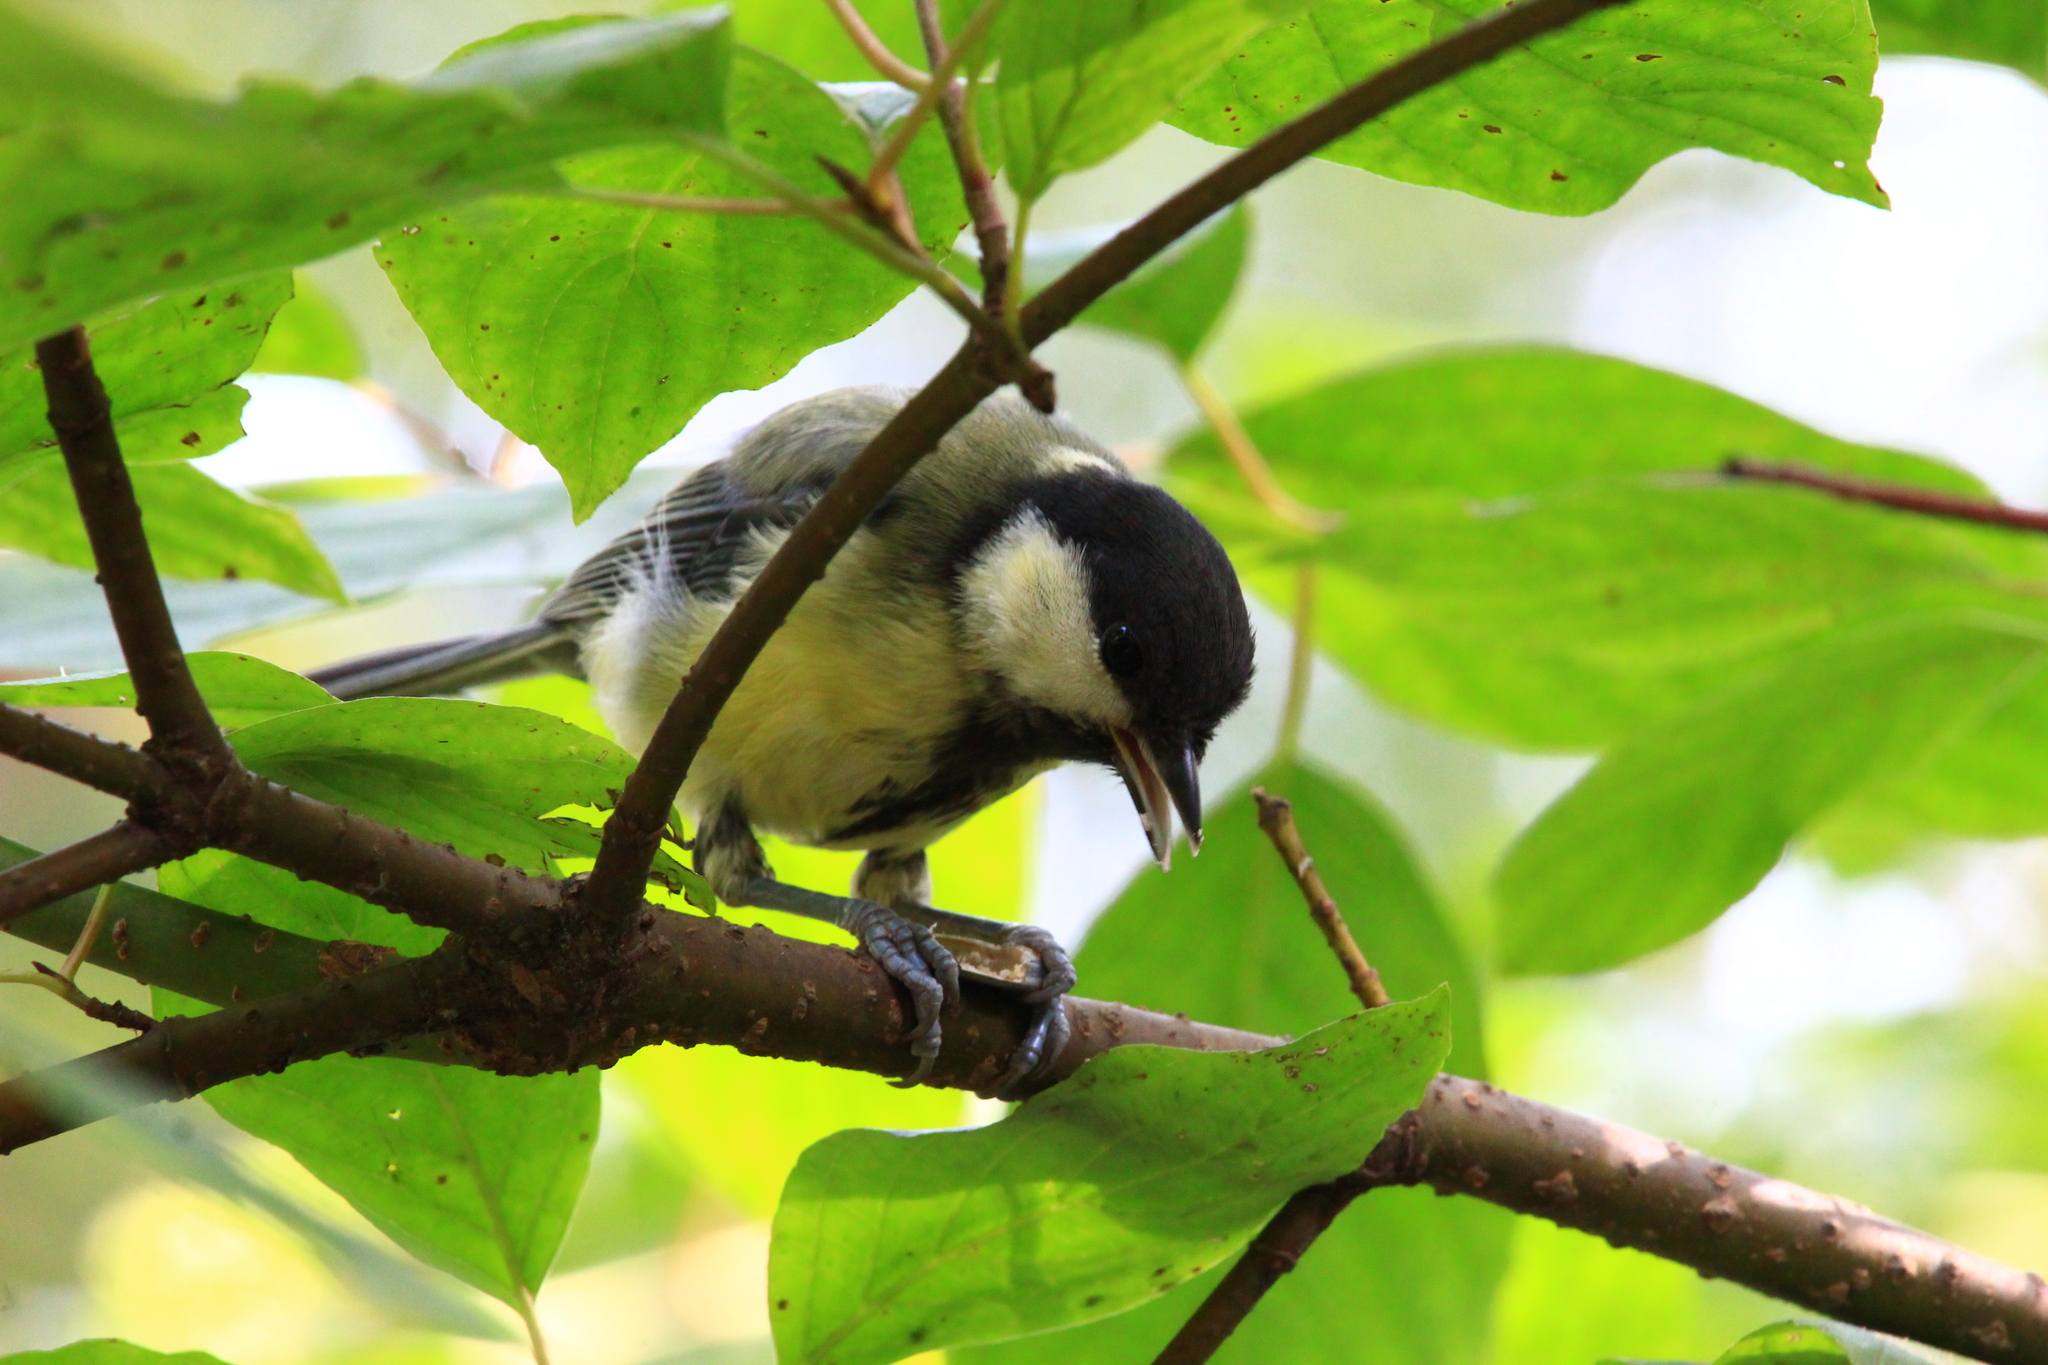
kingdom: Animalia
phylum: Chordata
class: Aves
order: Passeriformes
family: Paridae
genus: Parus
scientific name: Parus major
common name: Great tit
